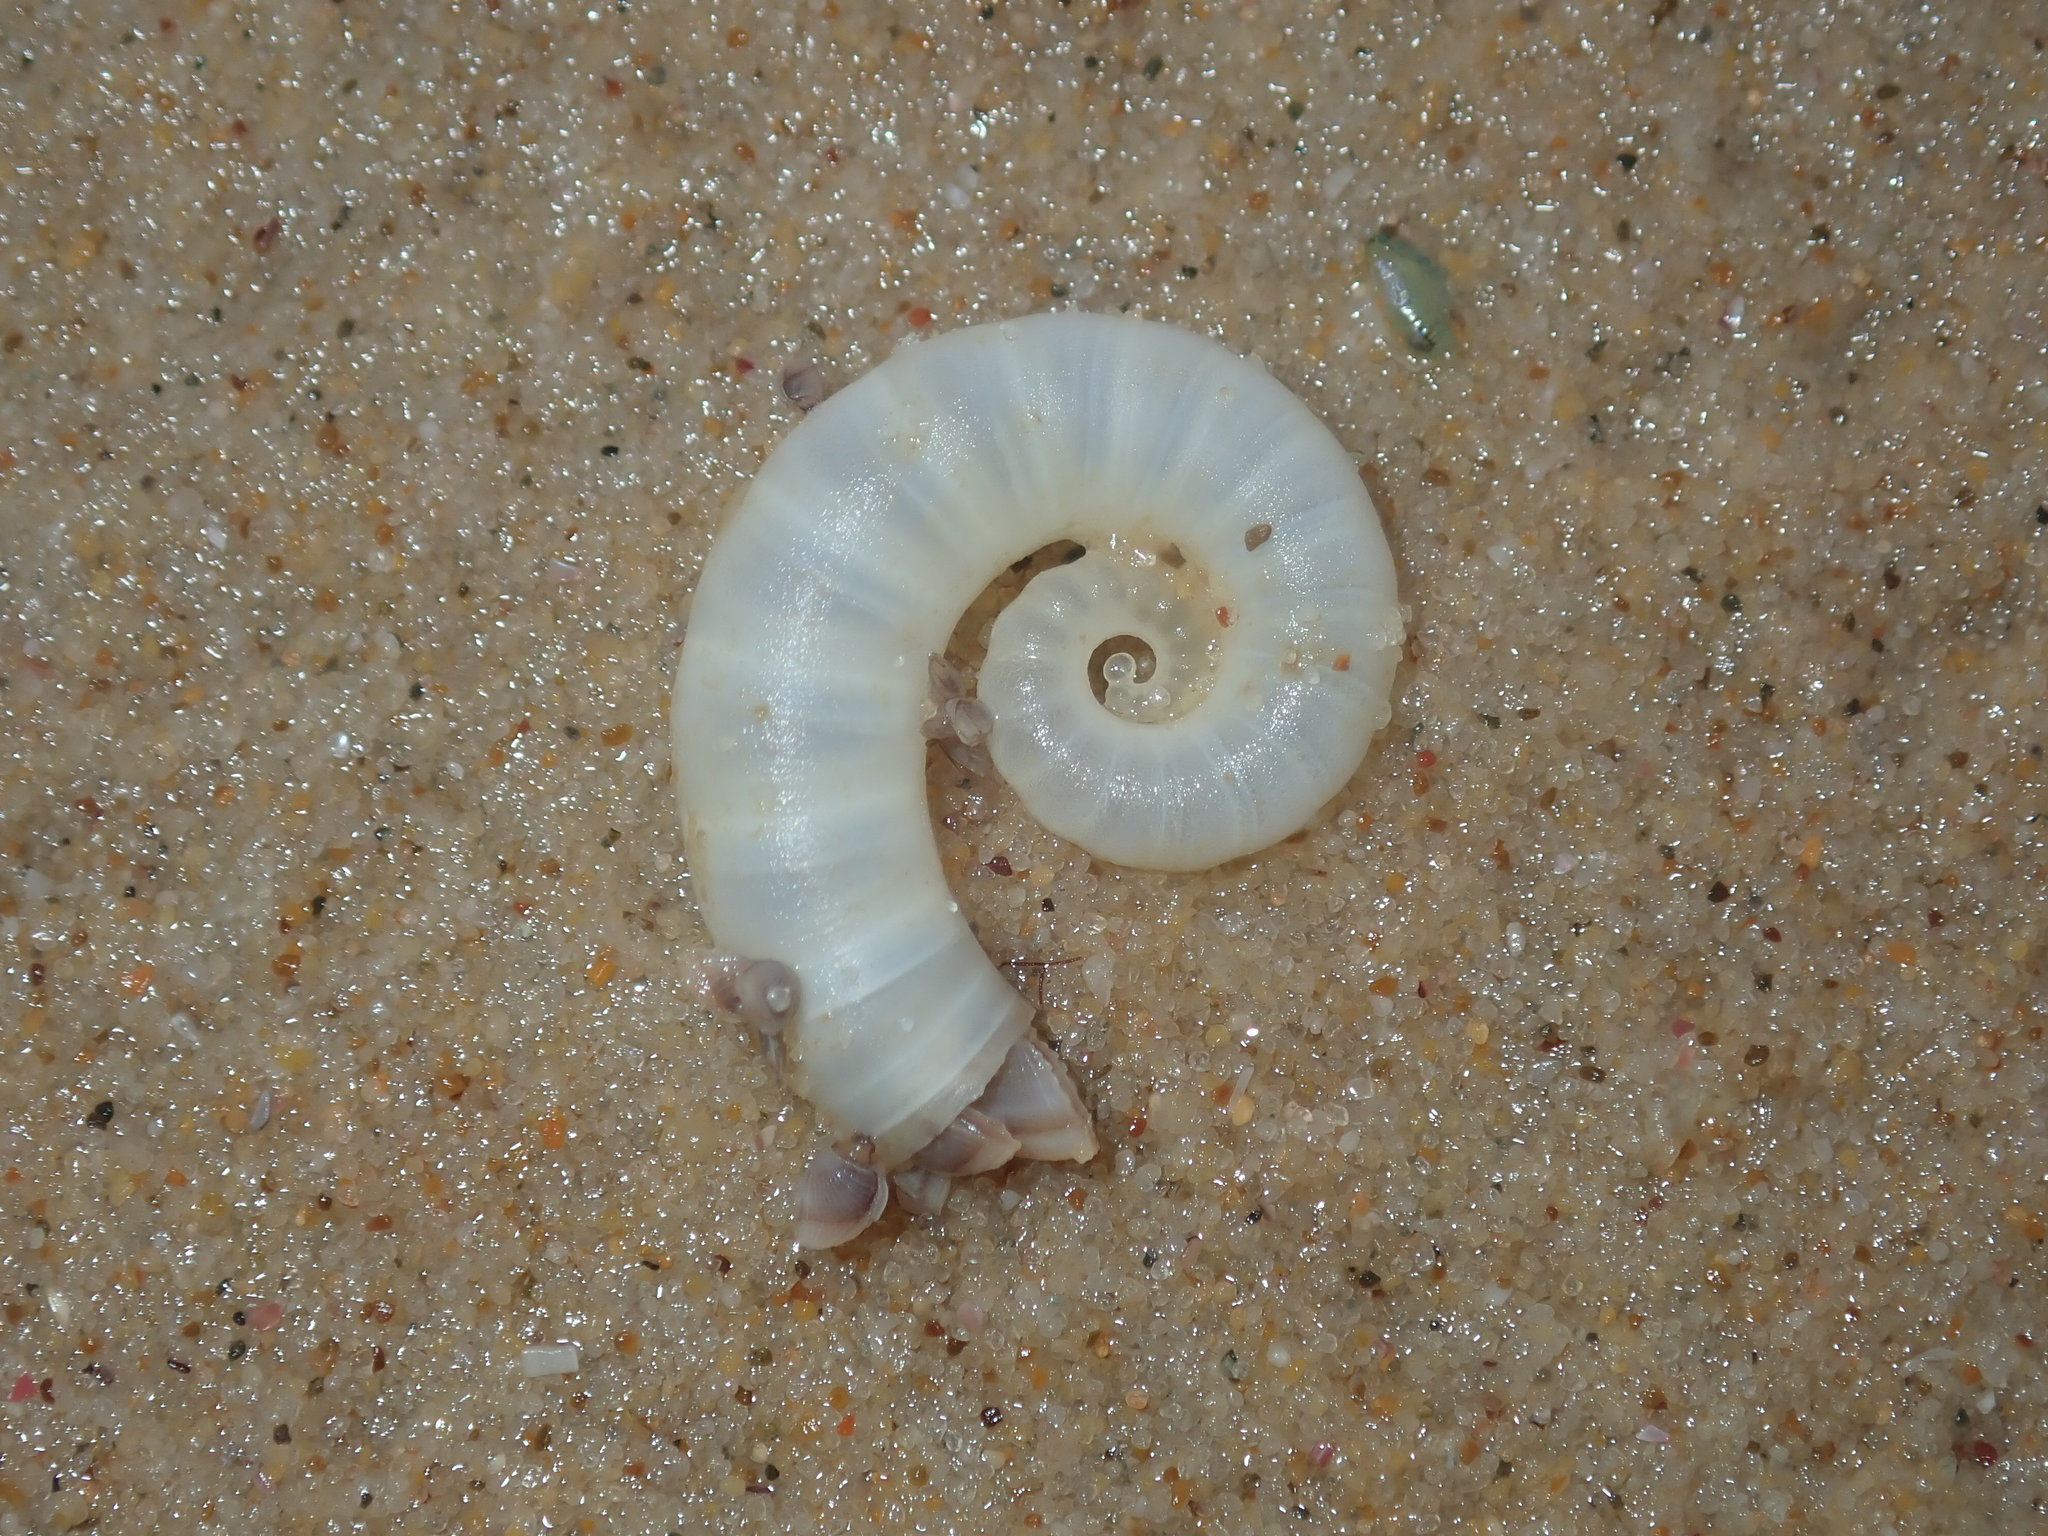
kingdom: Animalia
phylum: Mollusca
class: Cephalopoda
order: Spirulida
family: Spirulidae
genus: Spirula
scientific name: Spirula spirula
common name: Ram's horn squid
